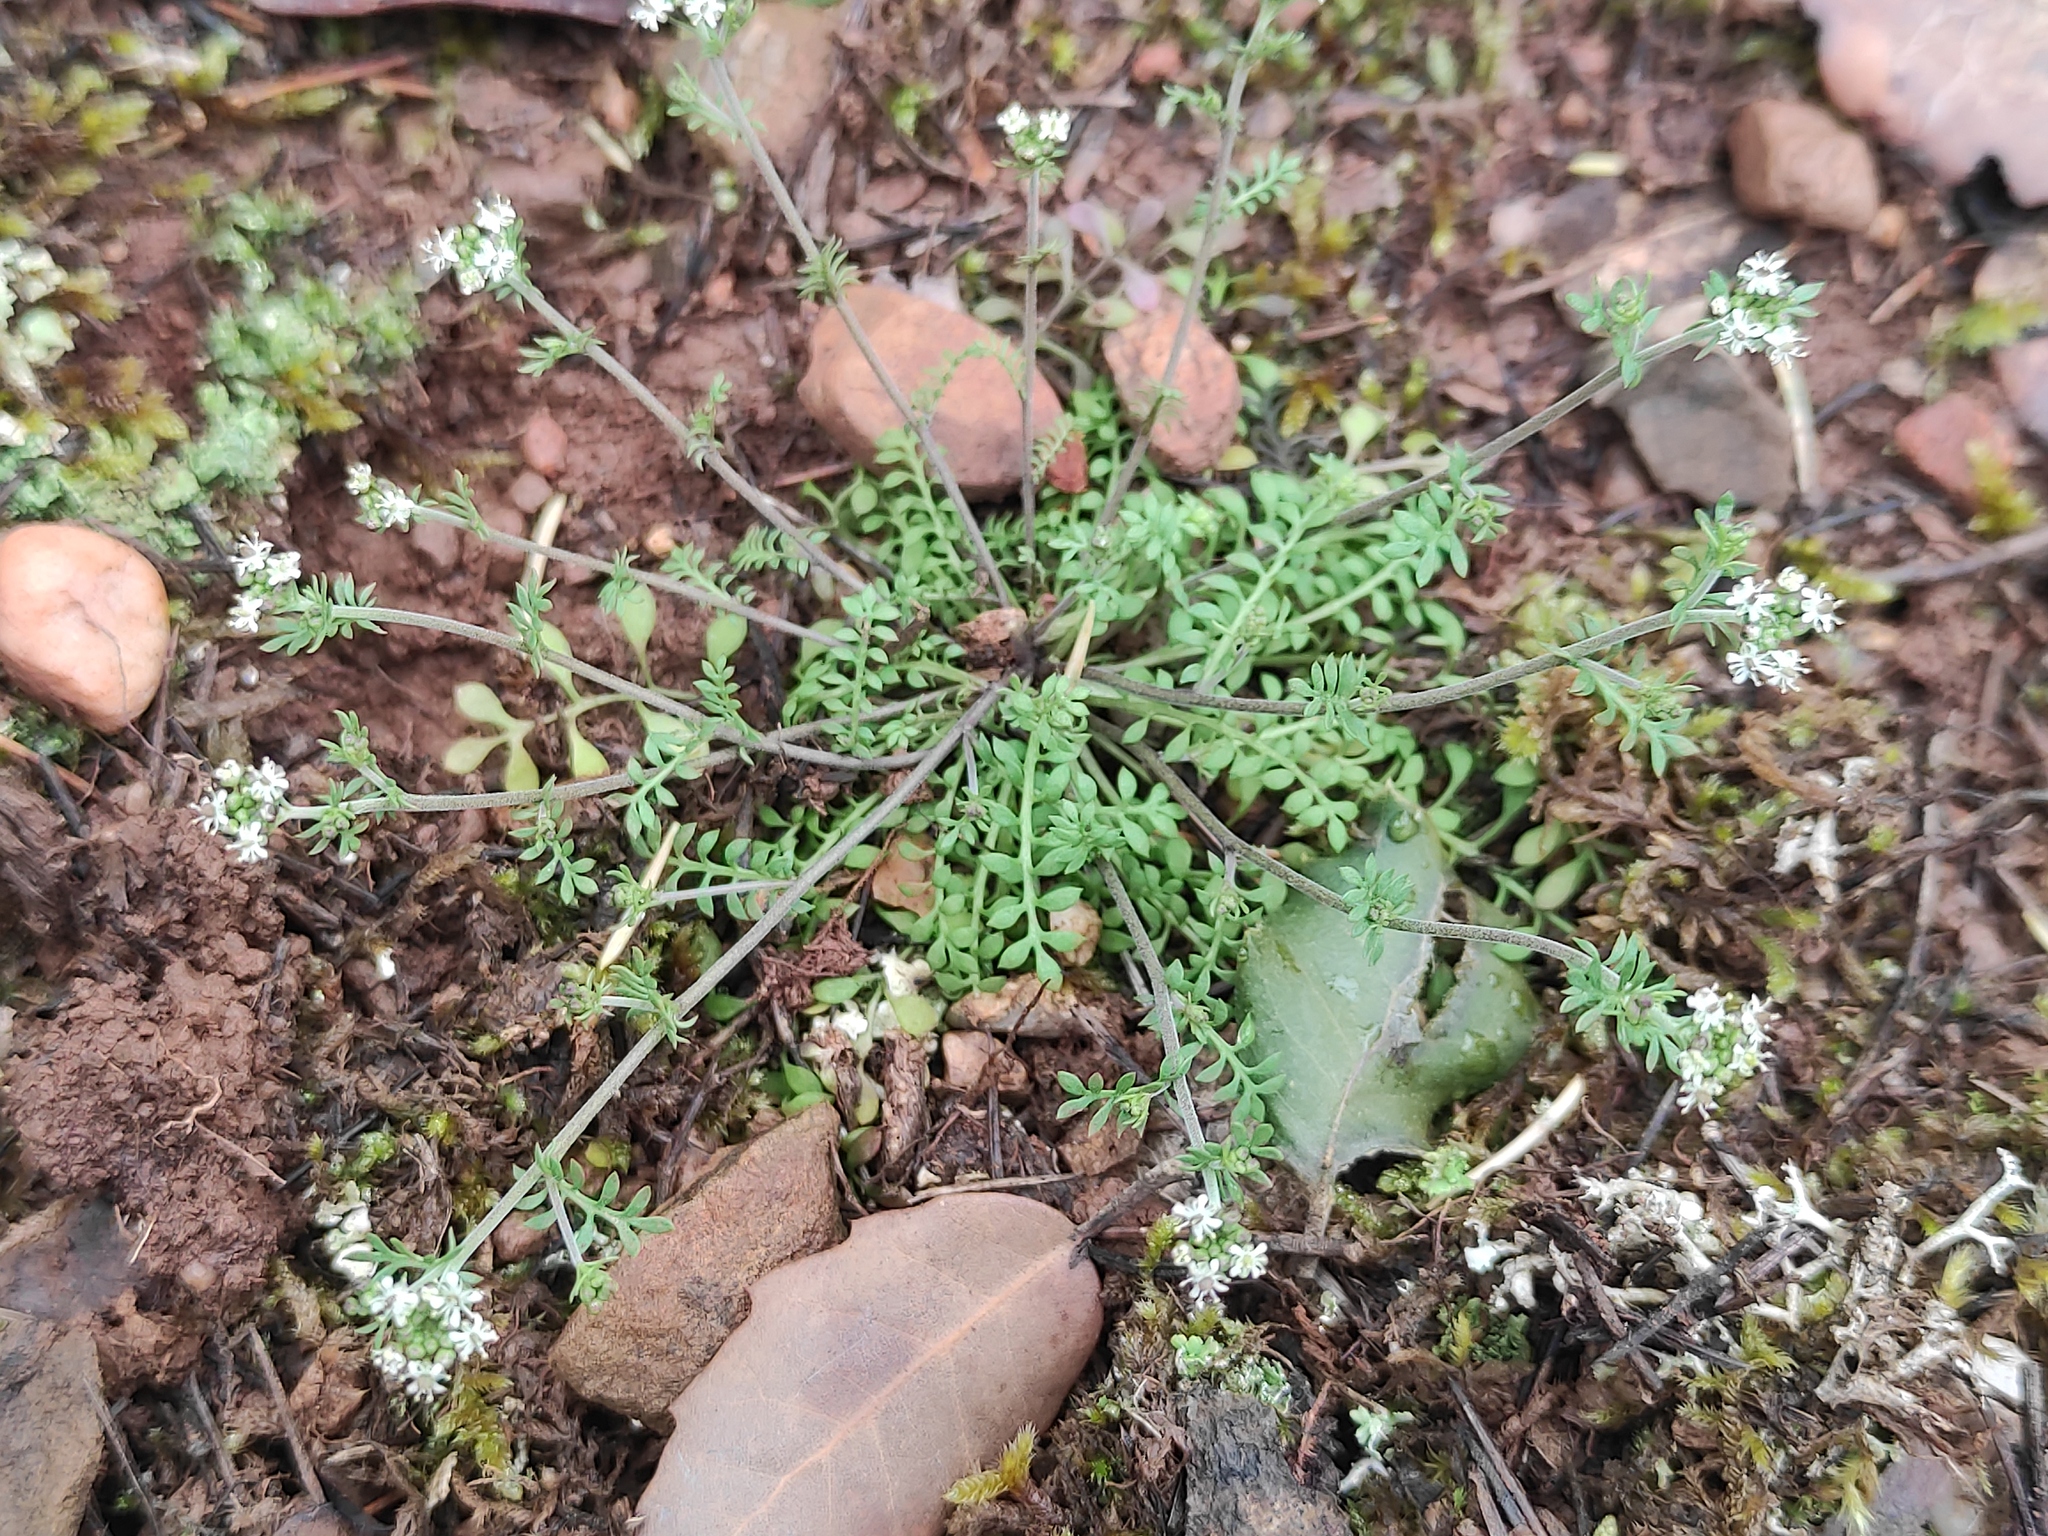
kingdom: Plantae
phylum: Tracheophyta
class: Magnoliopsida
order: Brassicales
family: Brassicaceae
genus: Hornungia
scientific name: Hornungia petraea
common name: Hutchinsia
